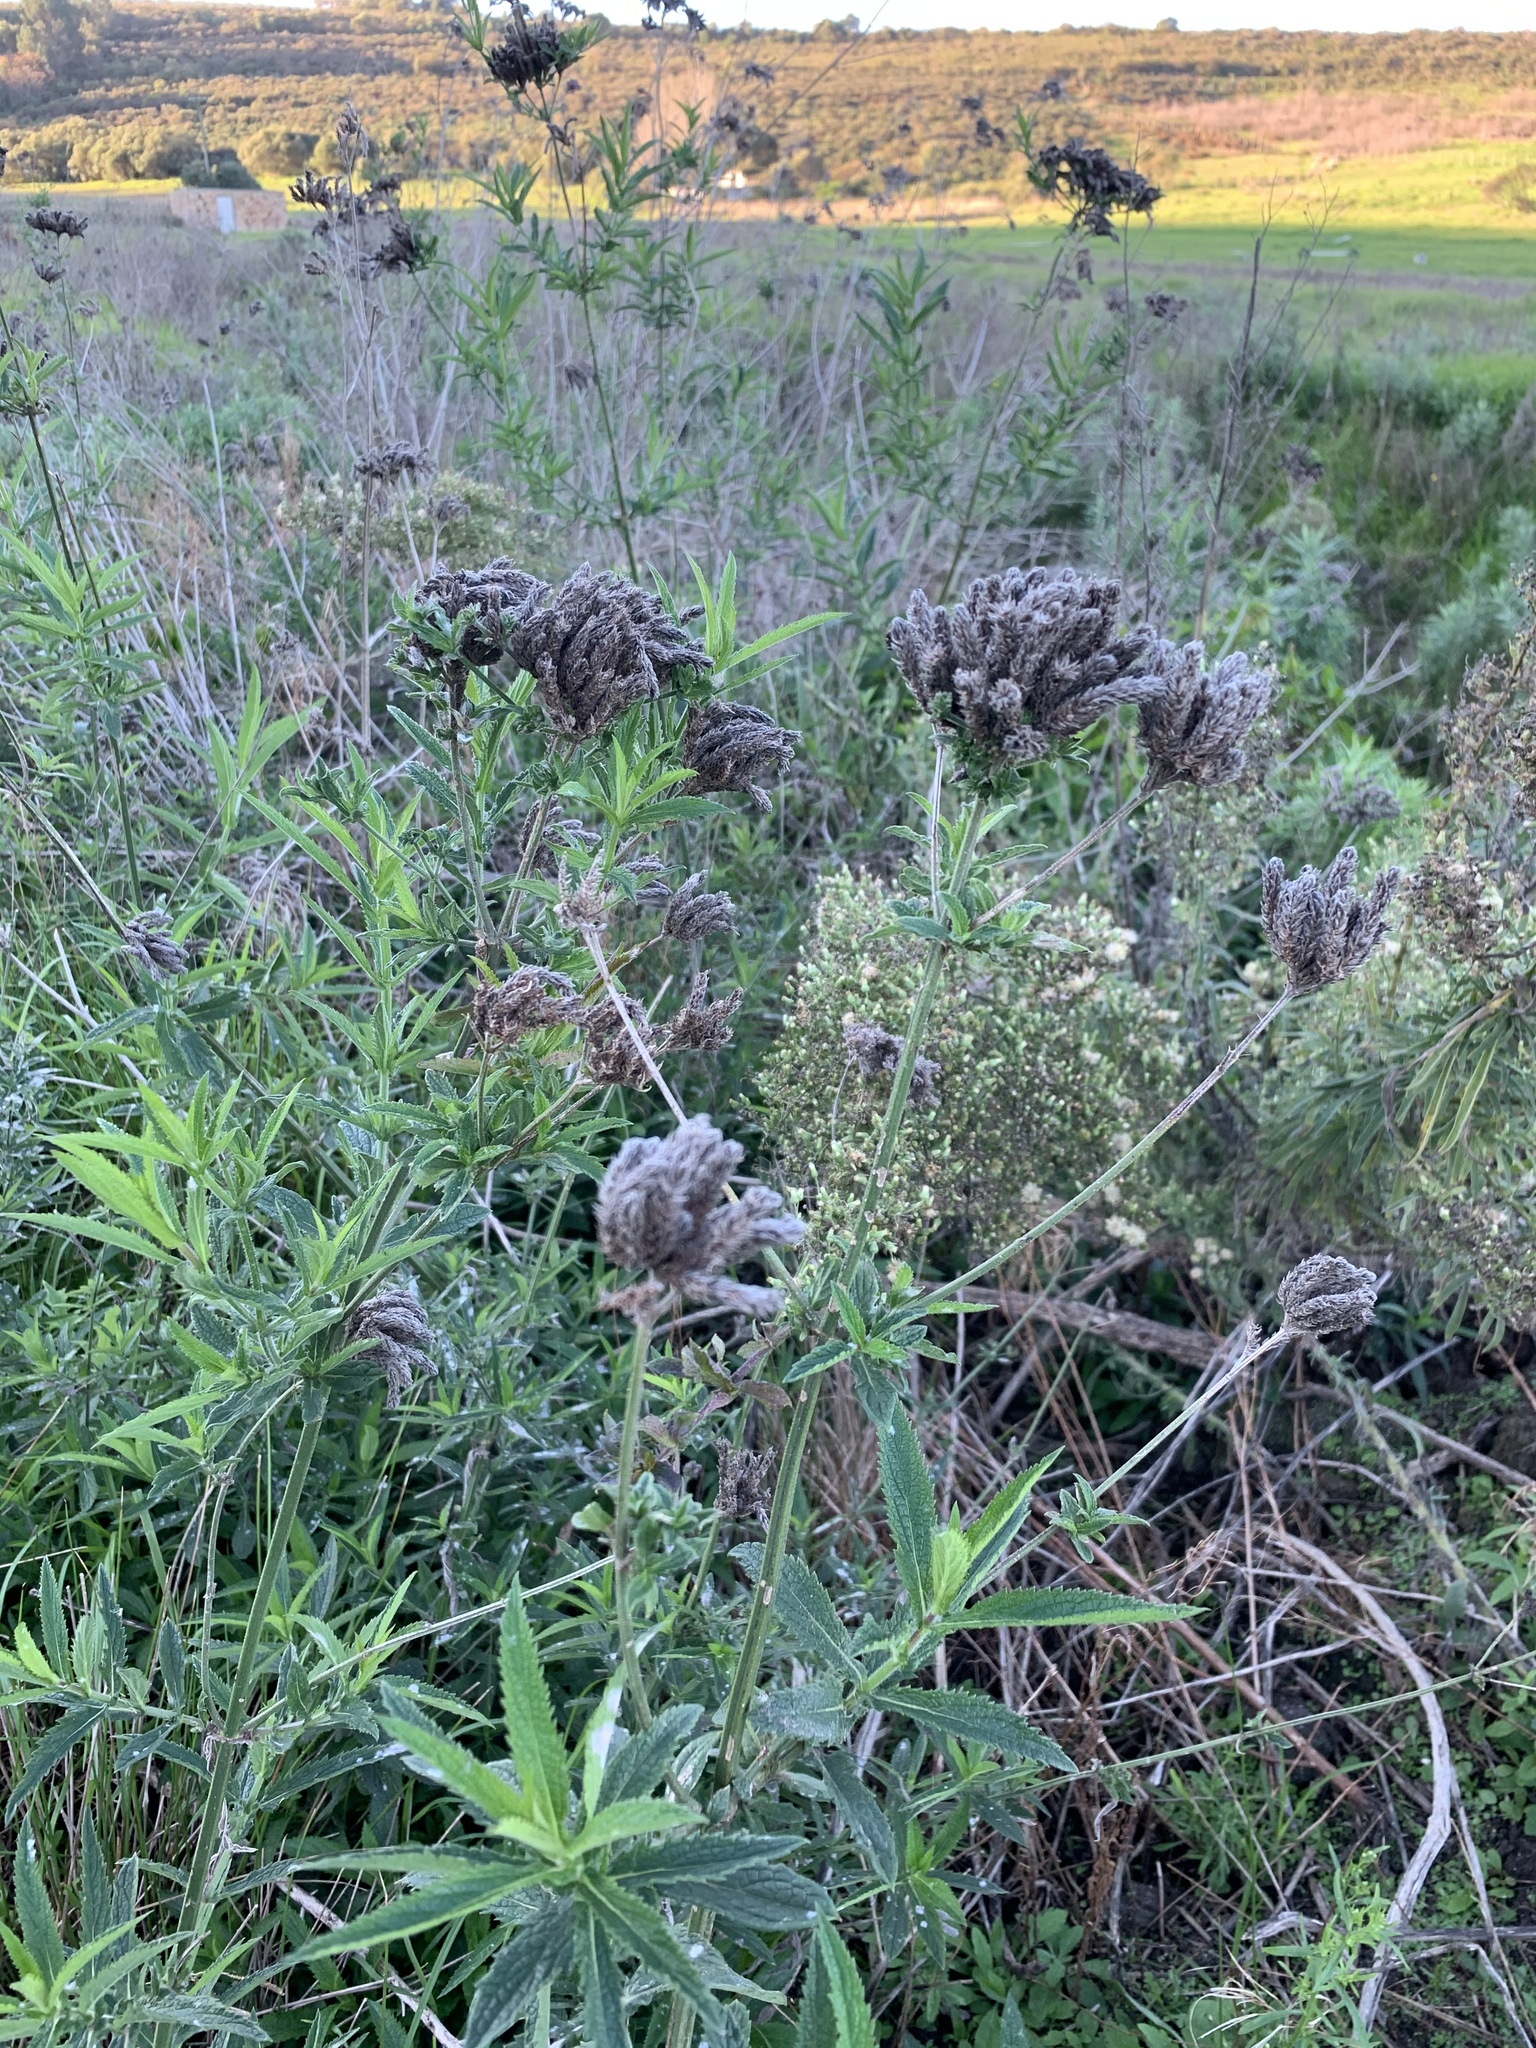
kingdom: Plantae
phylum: Tracheophyta
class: Magnoliopsida
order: Lamiales
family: Verbenaceae
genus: Verbena
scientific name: Verbena bonariensis
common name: Purpletop vervain
